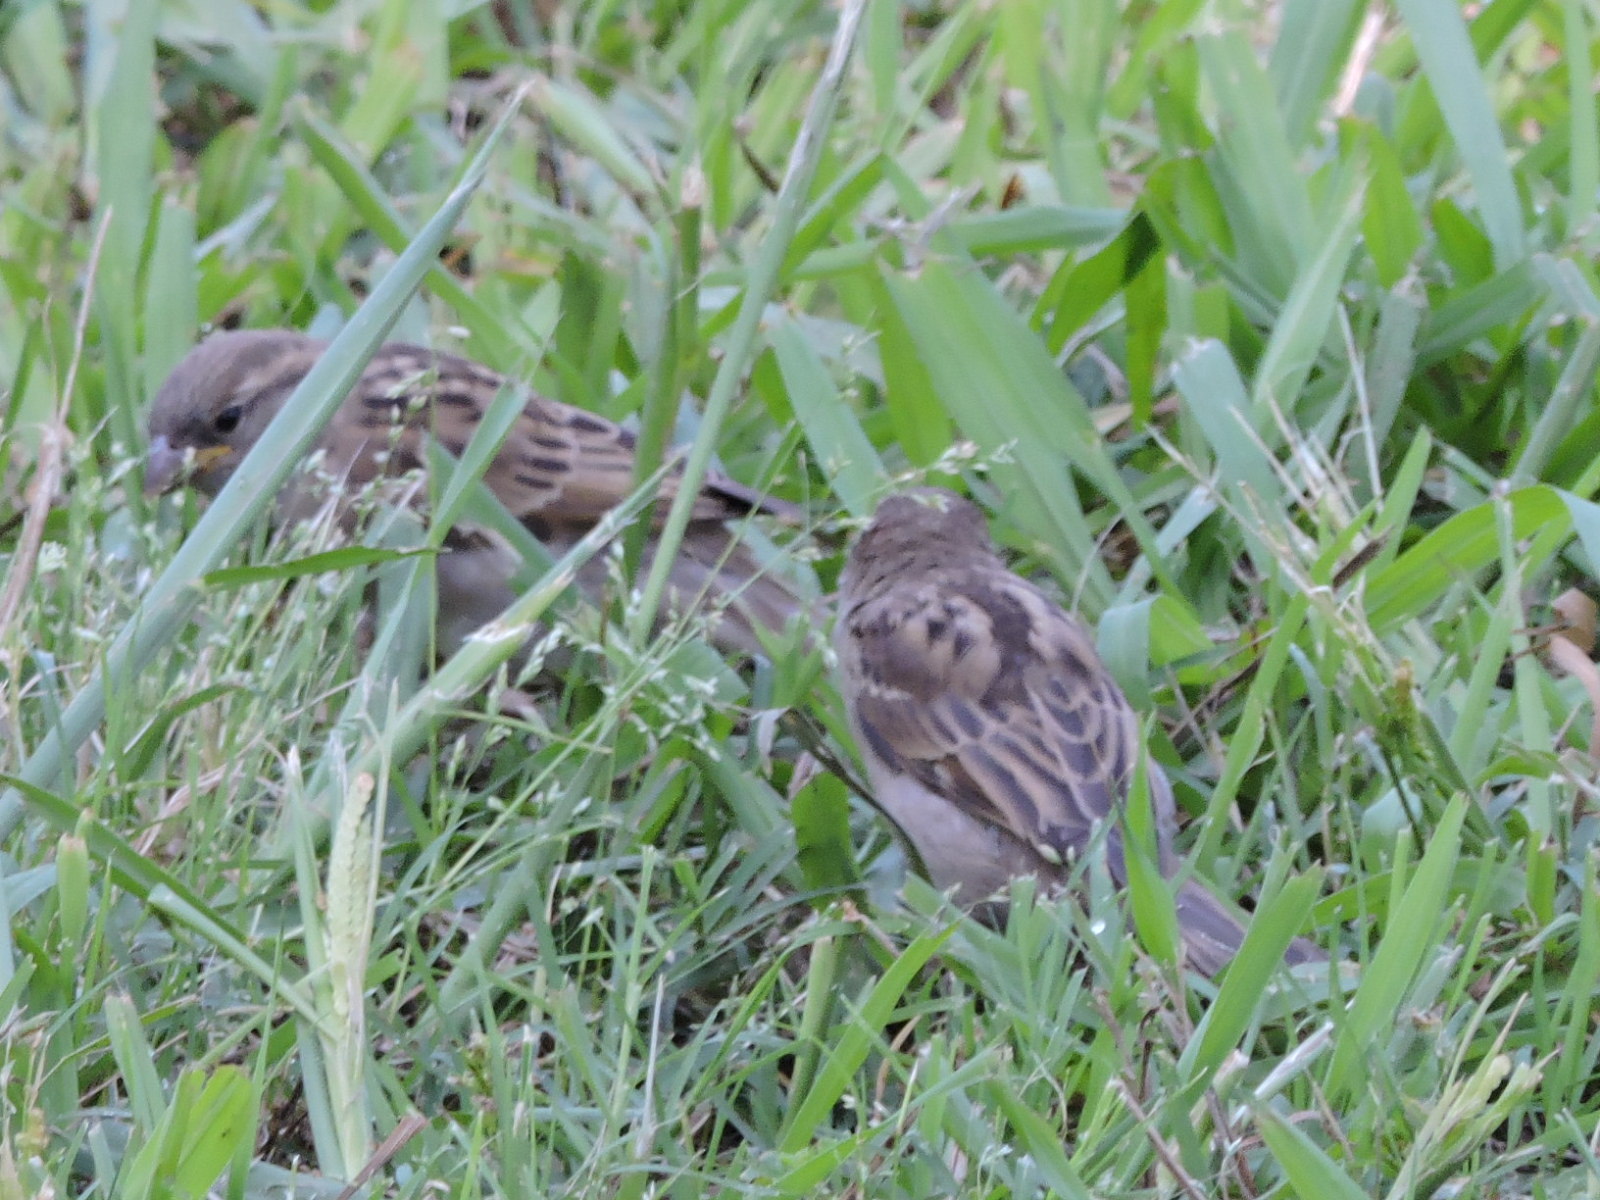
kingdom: Animalia
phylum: Chordata
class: Aves
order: Passeriformes
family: Passeridae
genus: Passer
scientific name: Passer domesticus
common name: House sparrow
